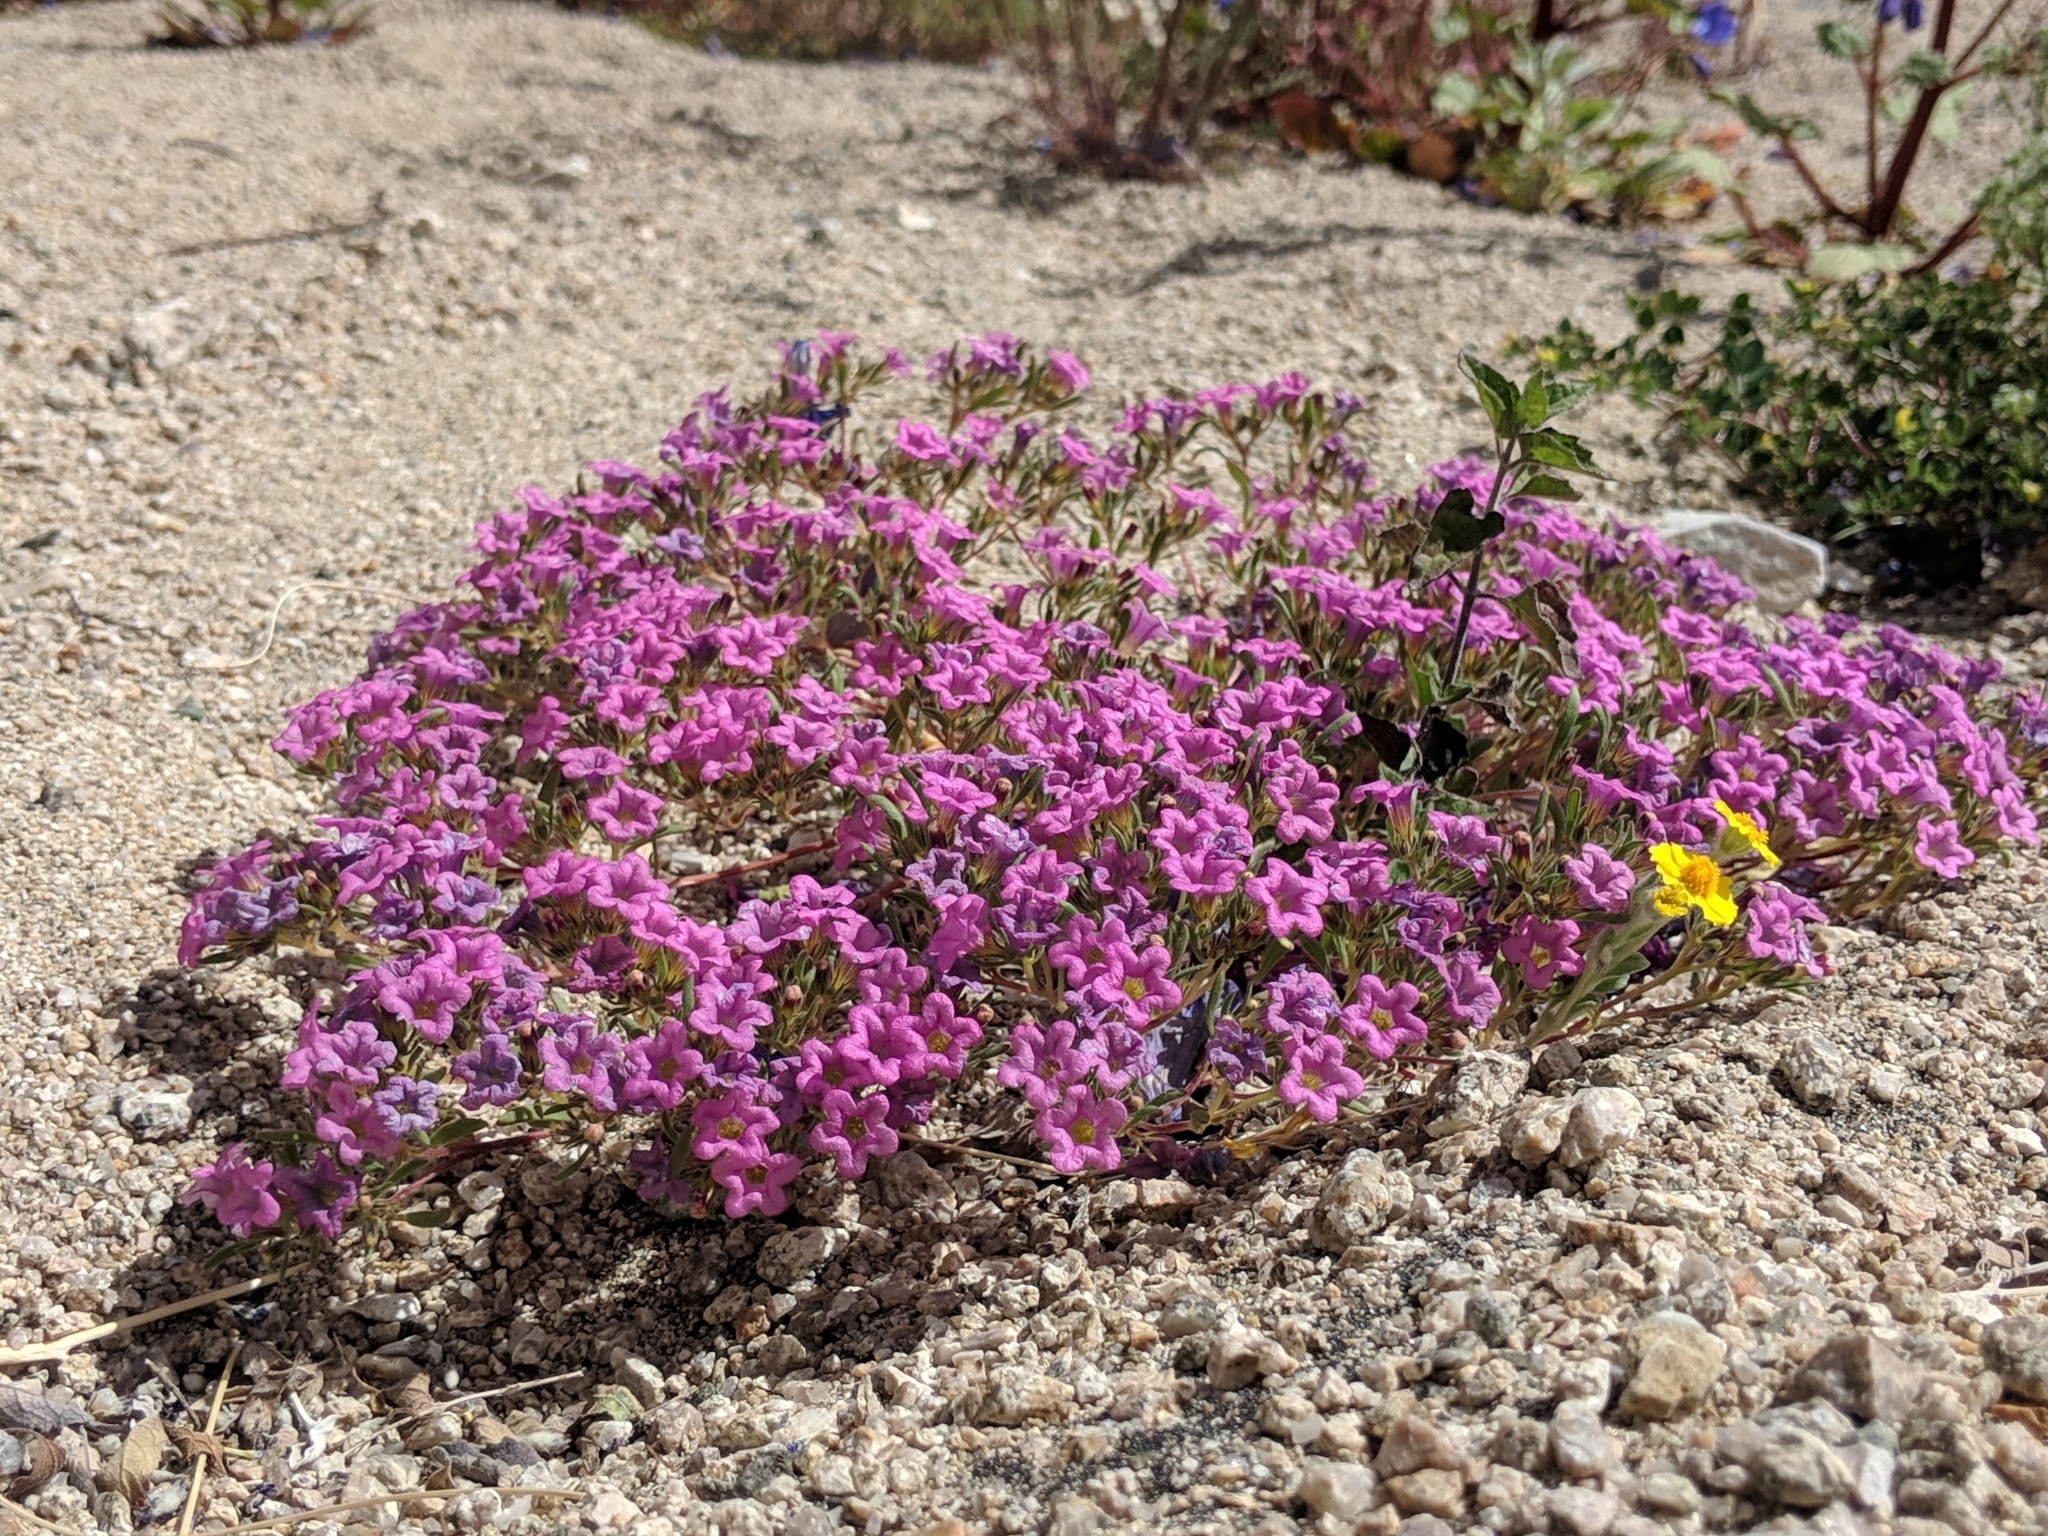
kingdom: Plantae
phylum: Tracheophyta
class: Magnoliopsida
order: Boraginales
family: Namaceae
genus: Nama
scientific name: Nama demissa
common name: Leafy nama
